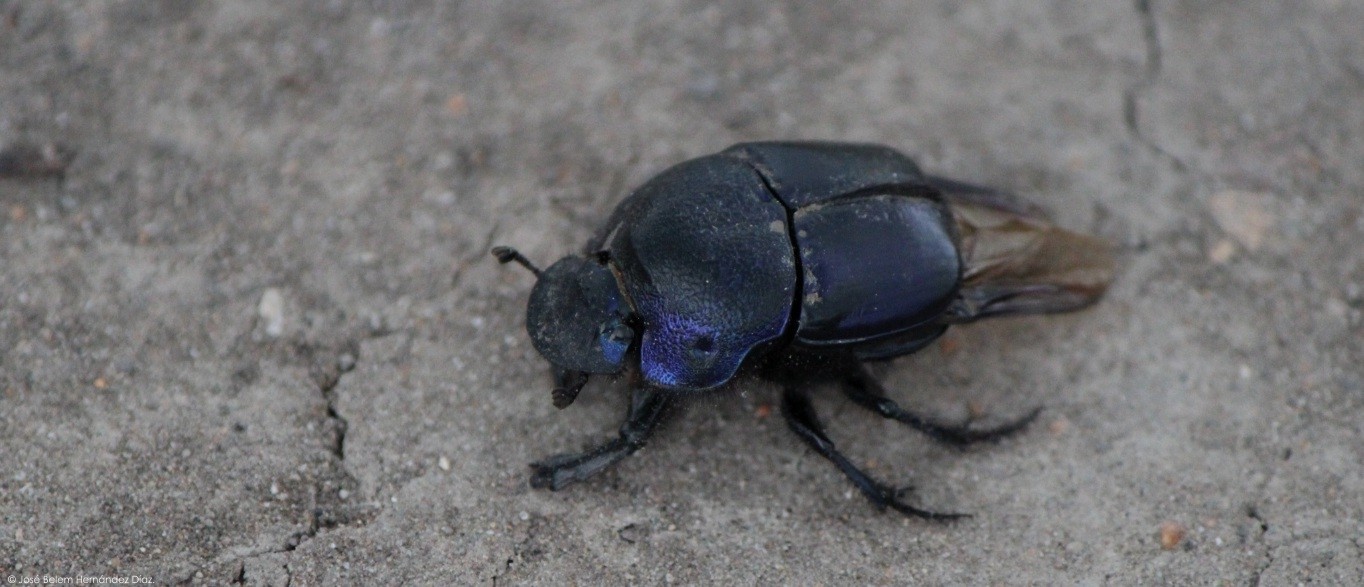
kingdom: Animalia
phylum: Arthropoda
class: Insecta
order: Coleoptera
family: Scarabaeidae
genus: Phanaeus
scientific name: Phanaeus quadridens
